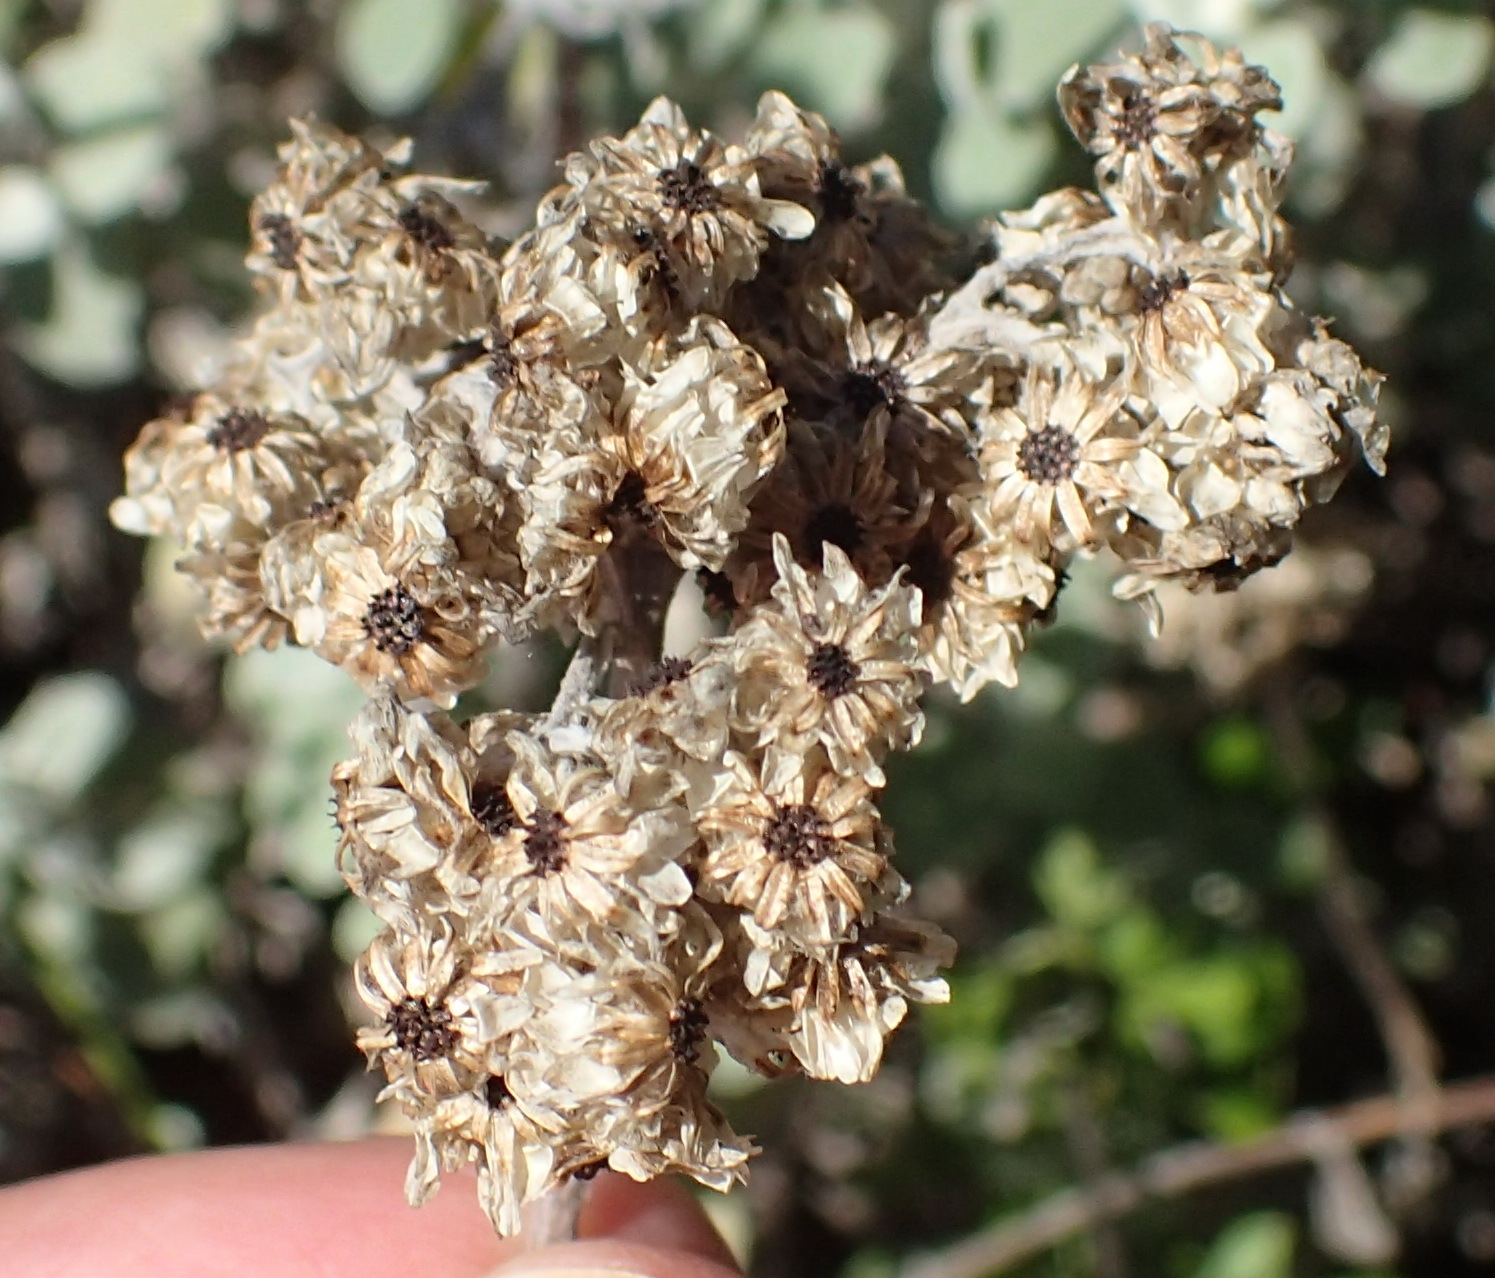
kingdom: Plantae
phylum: Tracheophyta
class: Magnoliopsida
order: Asterales
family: Asteraceae
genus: Helichrysum
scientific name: Helichrysum petiolare
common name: Licorice-plant
